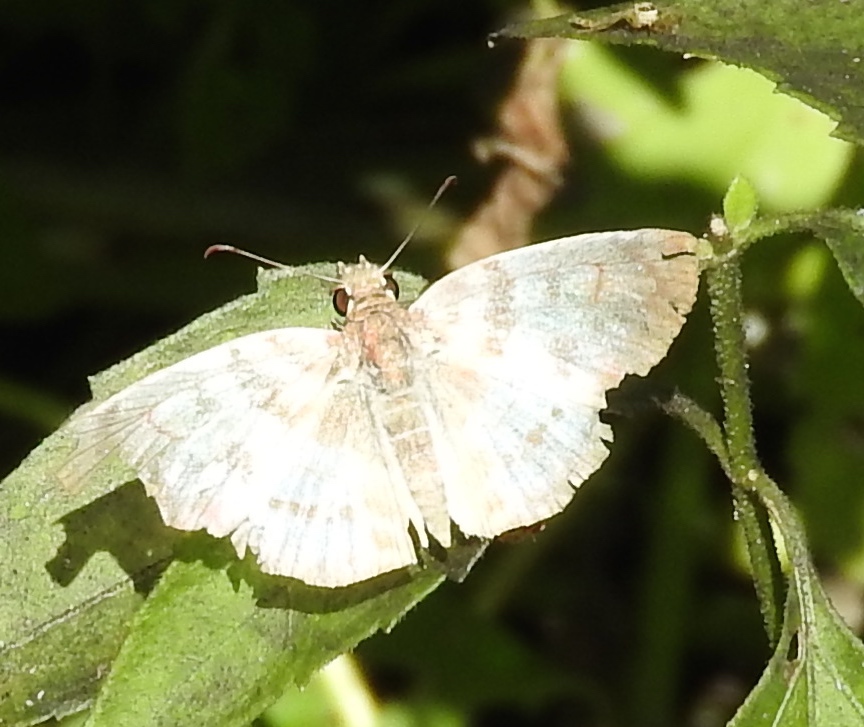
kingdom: Animalia
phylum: Arthropoda
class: Insecta
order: Lepidoptera
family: Hesperiidae
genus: Mylon
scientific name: Mylon pelopidas
